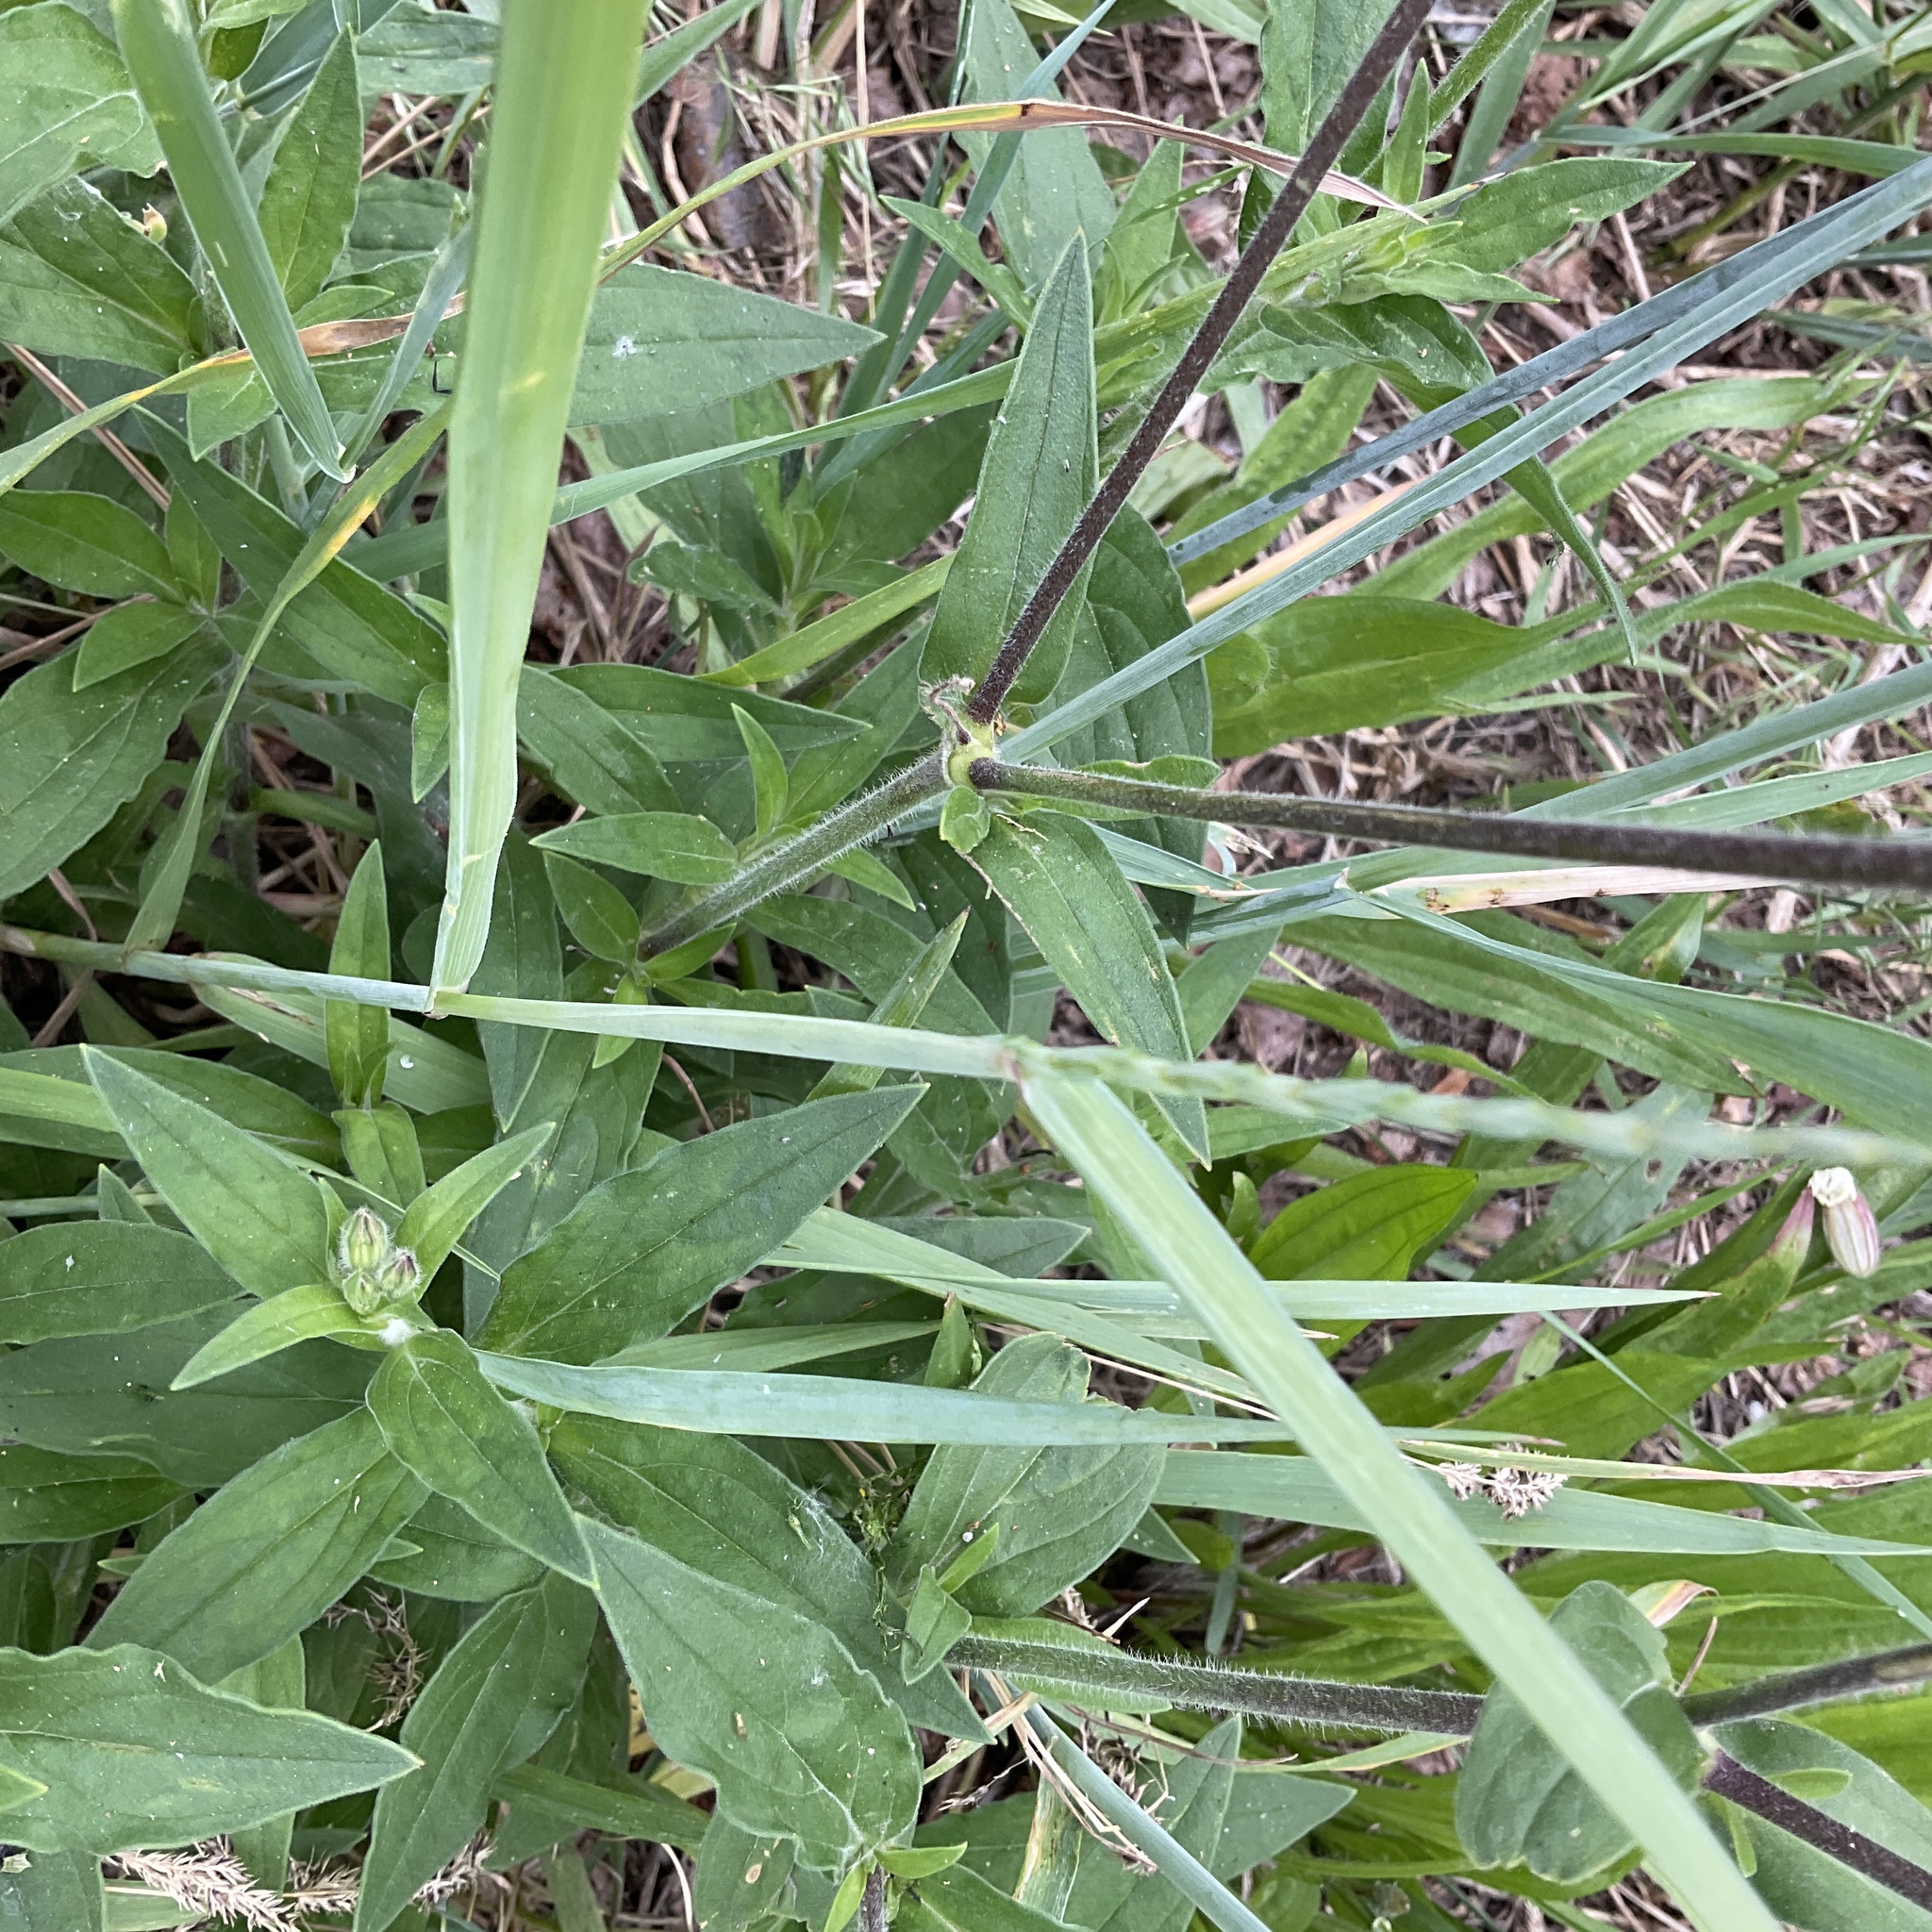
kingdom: Plantae
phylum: Tracheophyta
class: Magnoliopsida
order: Caryophyllales
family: Caryophyllaceae
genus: Silene
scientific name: Silene latifolia
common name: White campion
